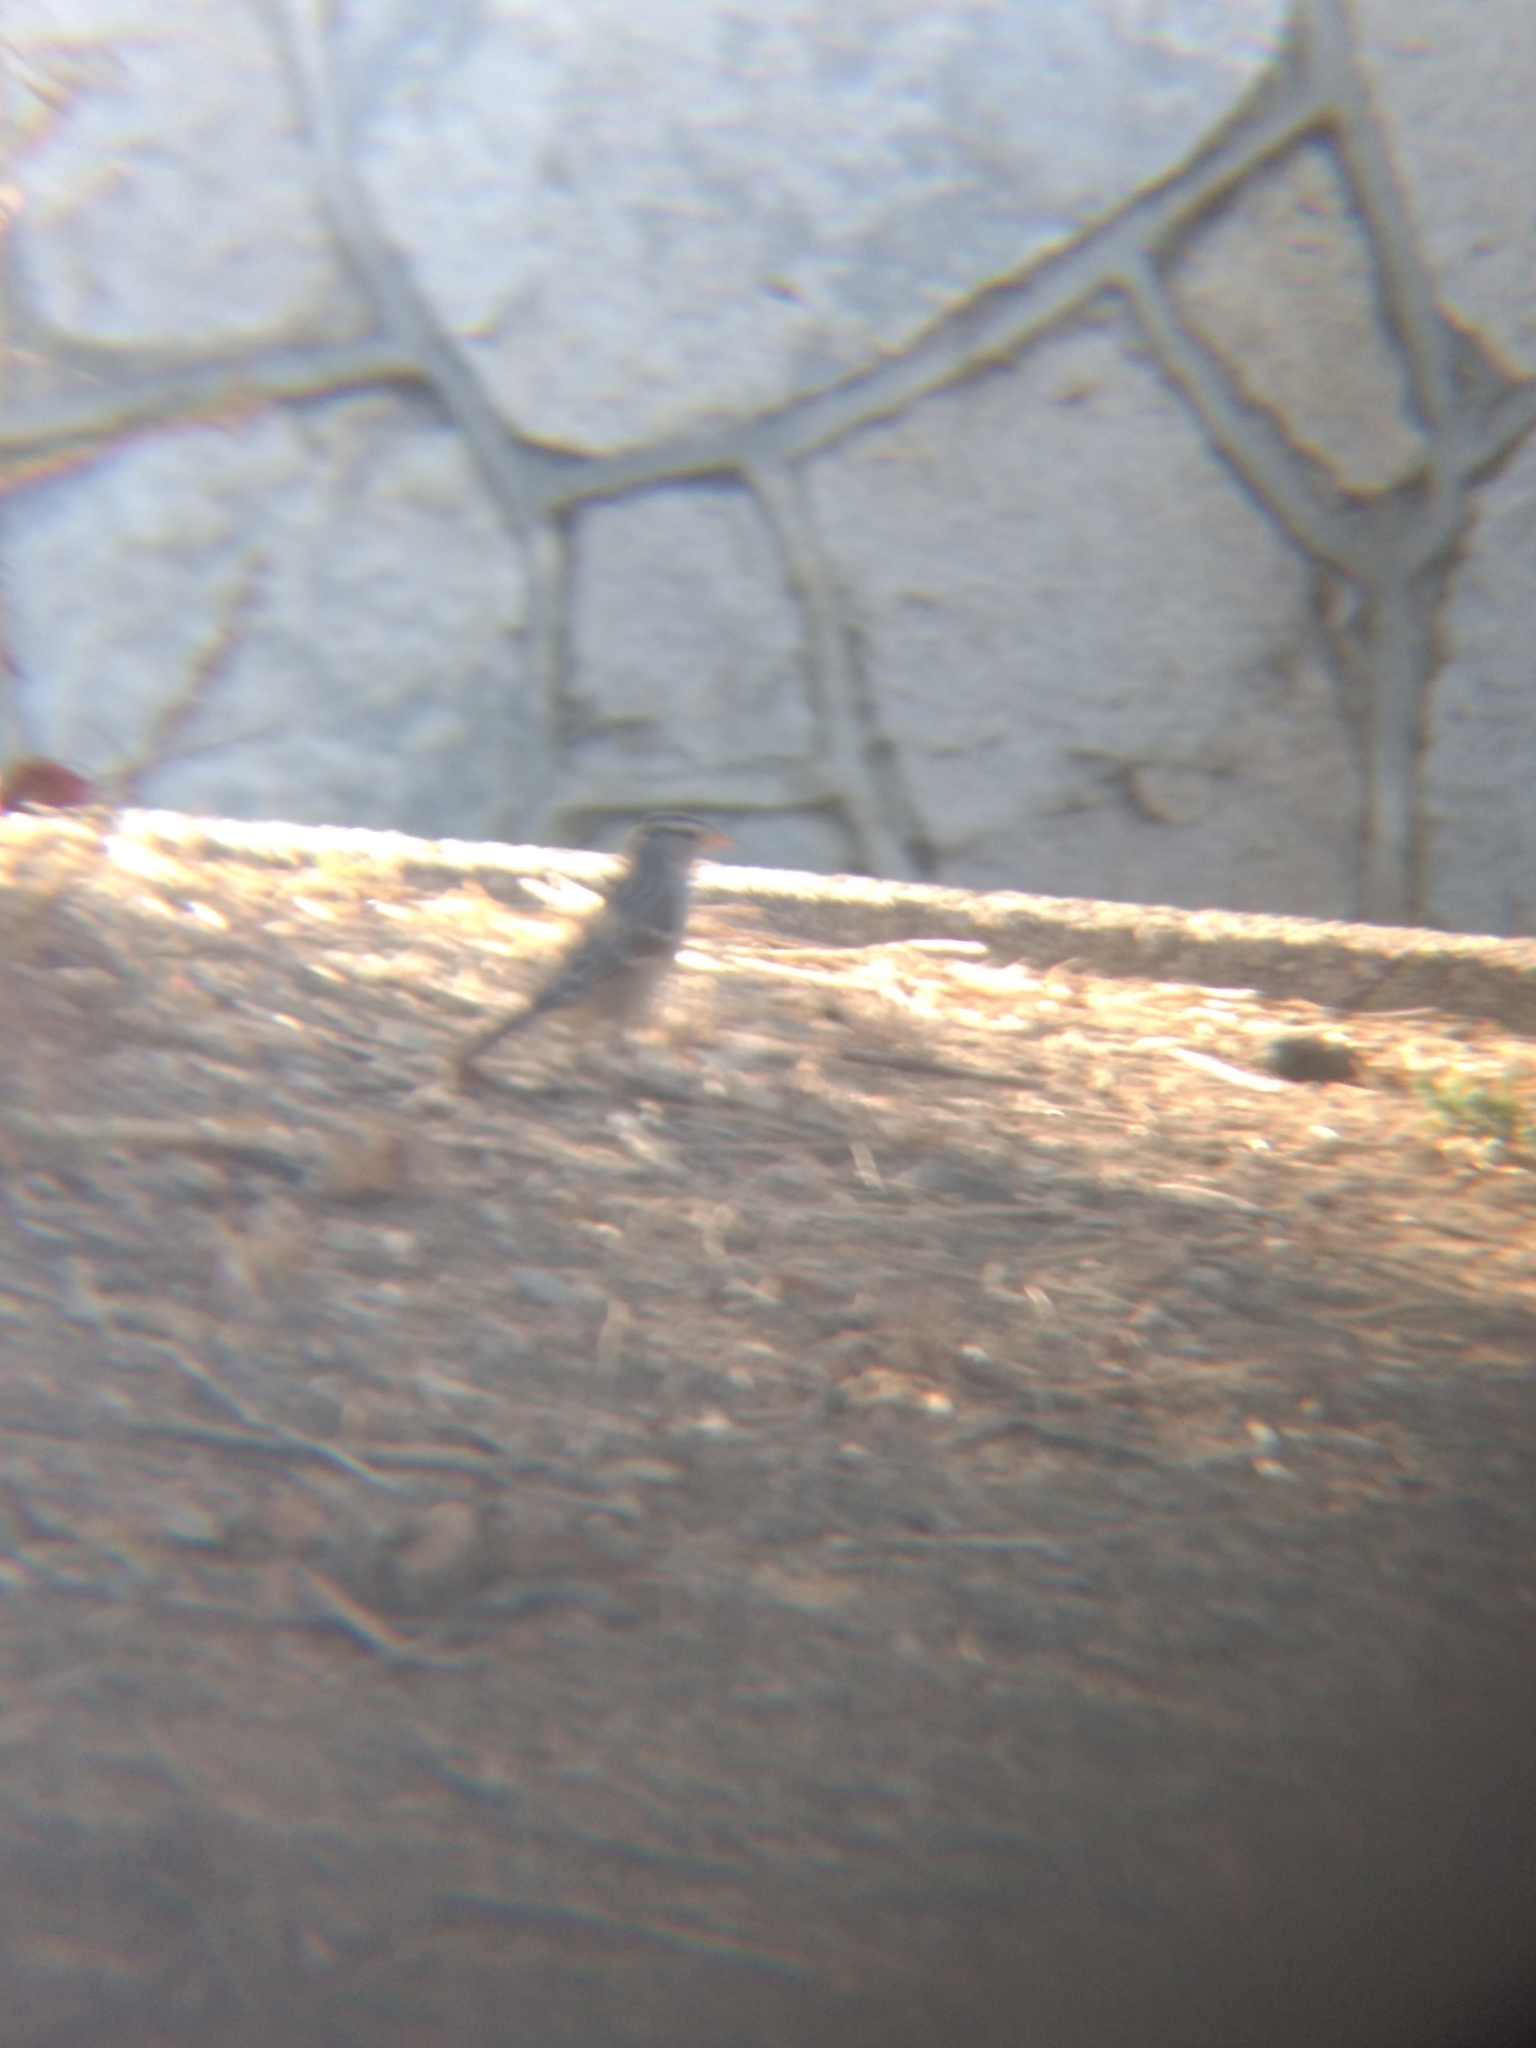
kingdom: Animalia
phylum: Chordata
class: Aves
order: Passeriformes
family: Passerellidae
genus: Zonotrichia
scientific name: Zonotrichia leucophrys
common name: White-crowned sparrow
